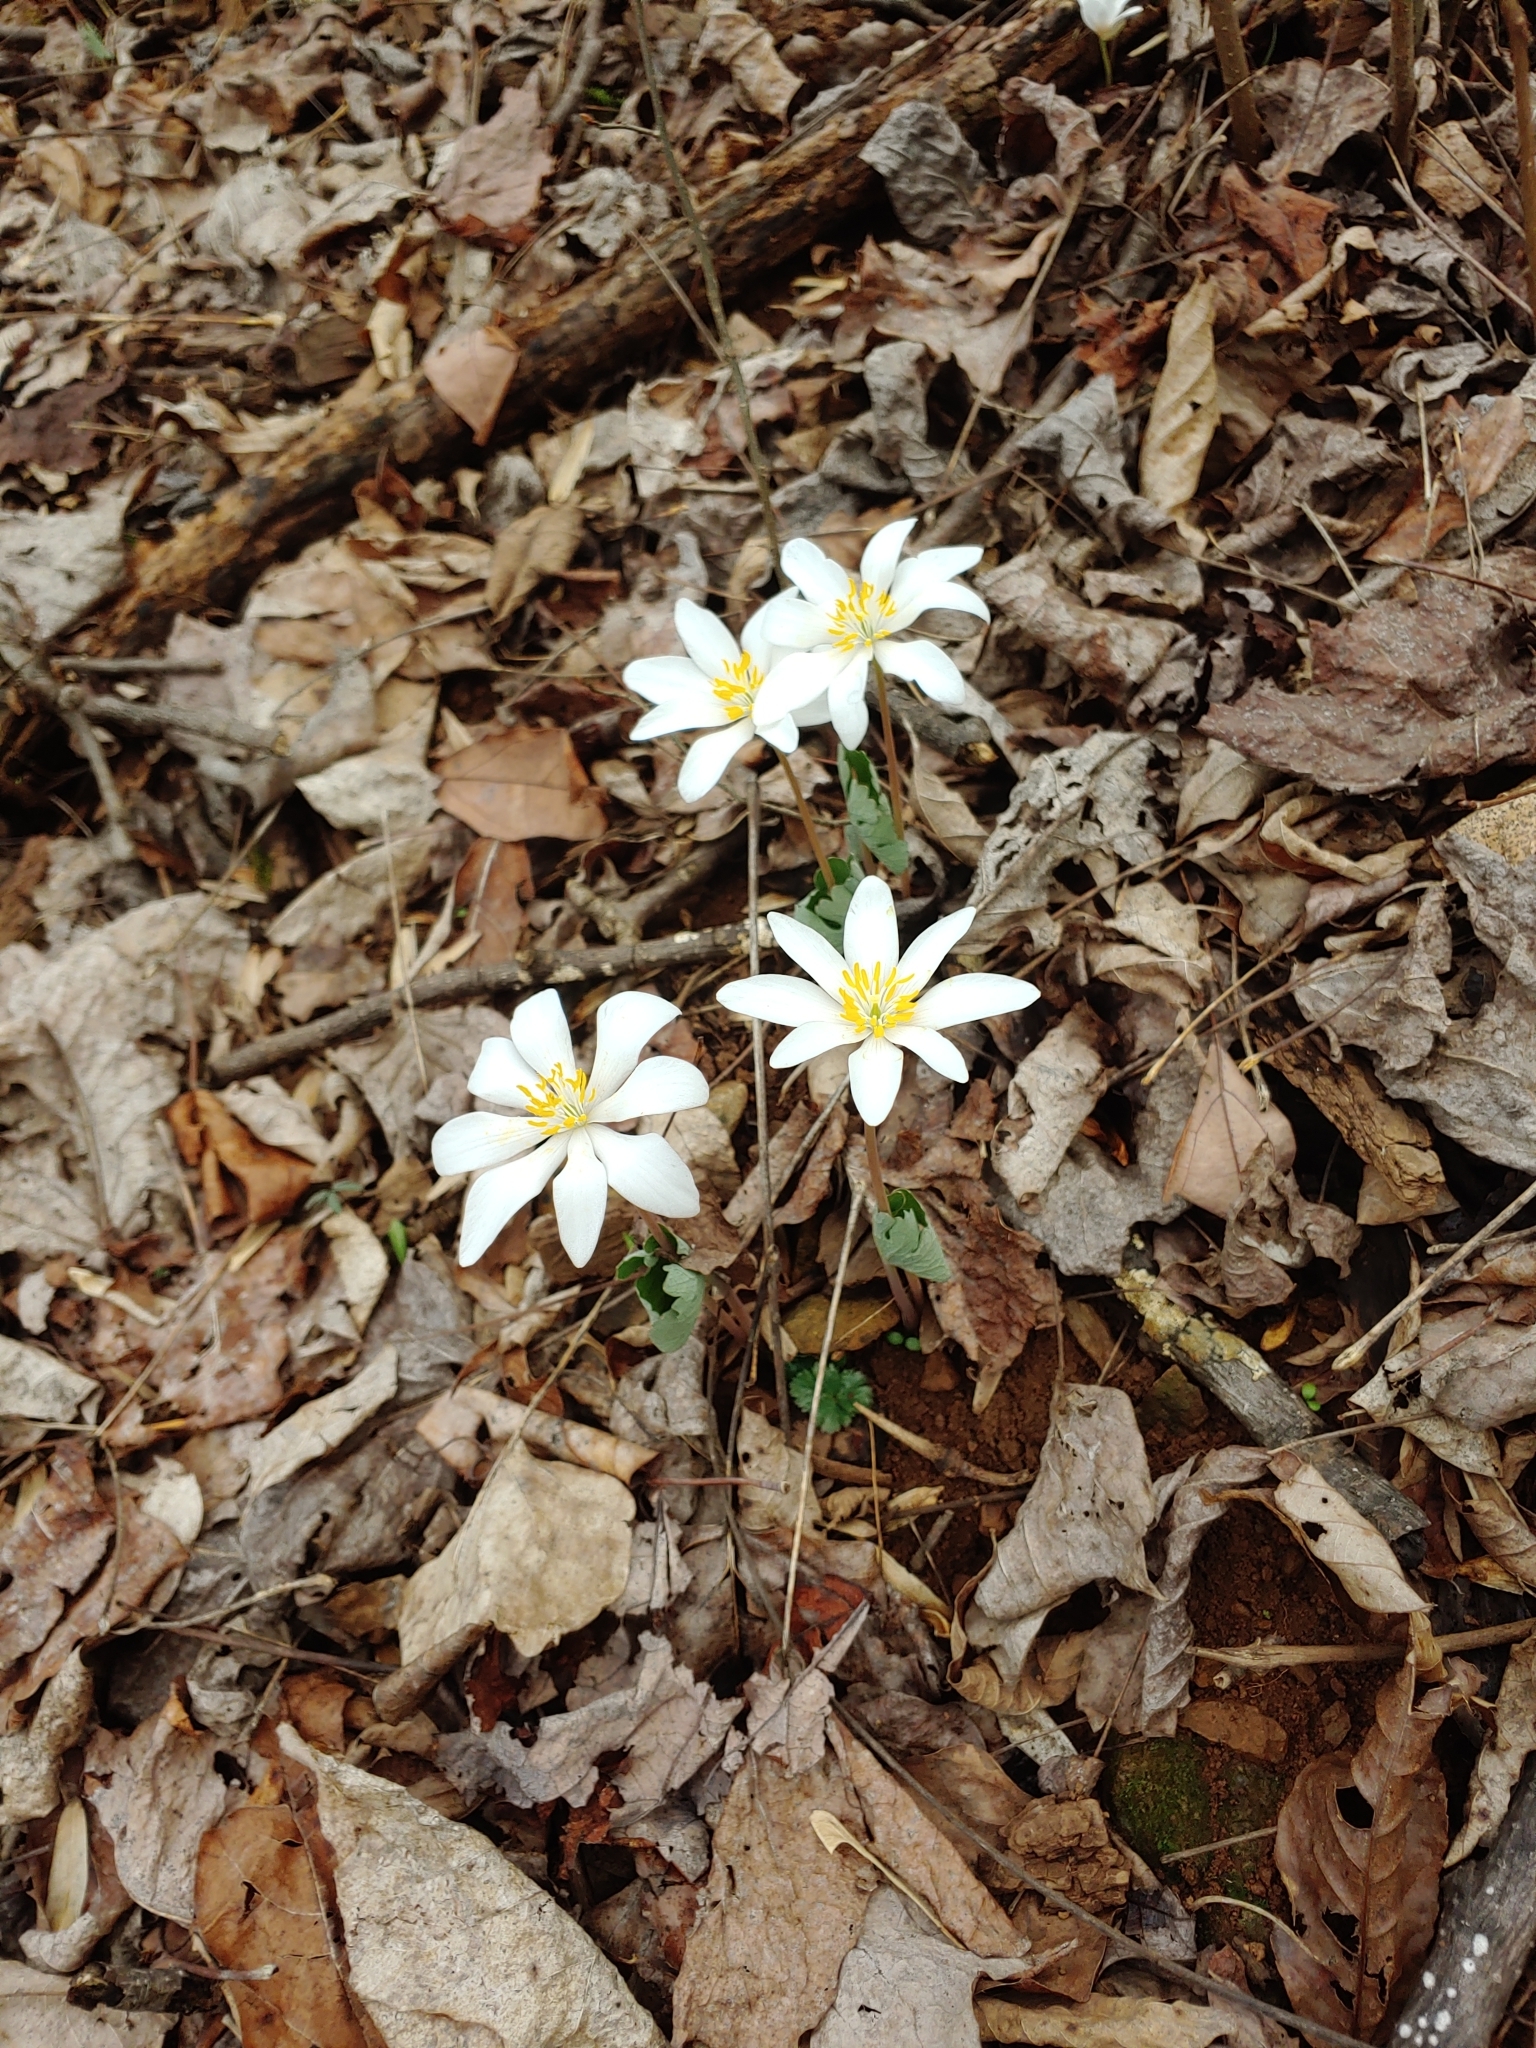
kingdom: Plantae
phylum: Tracheophyta
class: Magnoliopsida
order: Ranunculales
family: Papaveraceae
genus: Sanguinaria
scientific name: Sanguinaria canadensis
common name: Bloodroot
